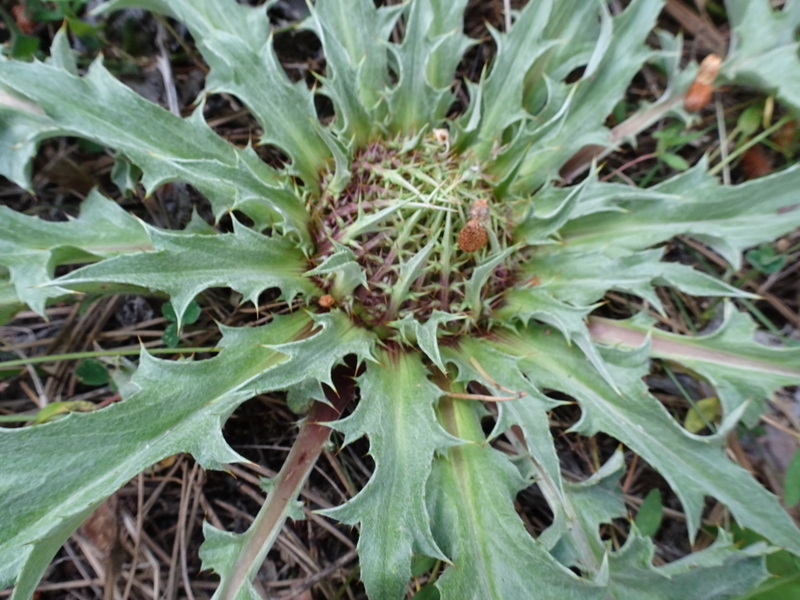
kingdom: Plantae
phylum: Tracheophyta
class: Magnoliopsida
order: Asterales
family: Asteraceae
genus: Carlina
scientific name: Carlina acaulis
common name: Stemless carline thistle
